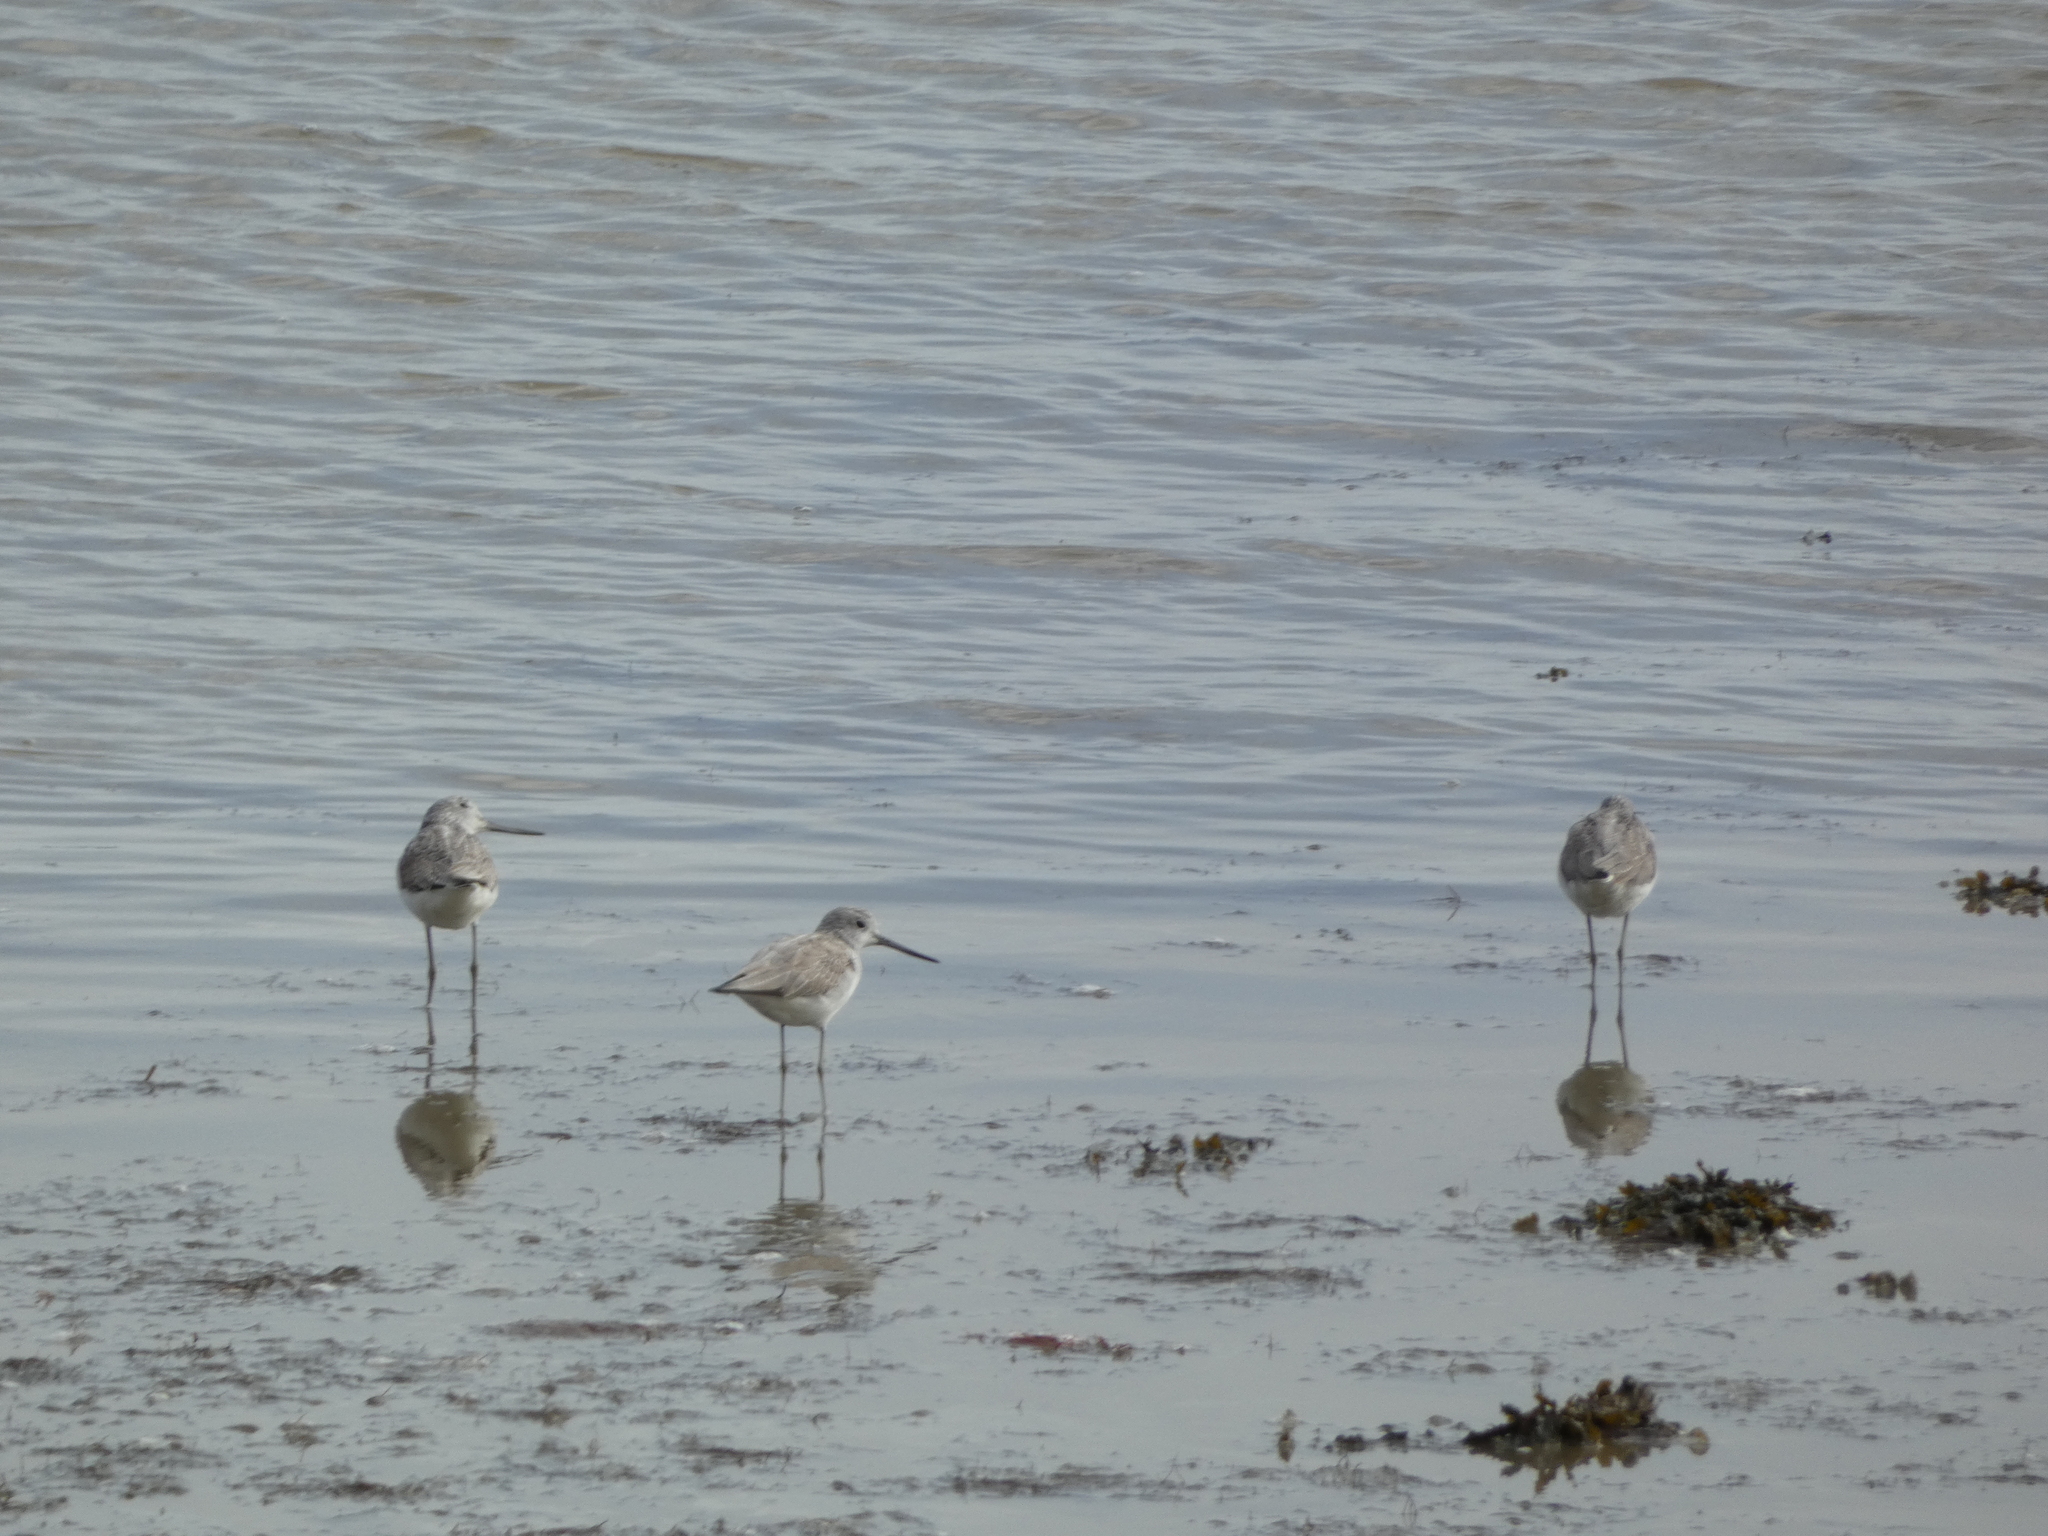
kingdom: Animalia
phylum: Chordata
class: Aves
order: Charadriiformes
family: Scolopacidae
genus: Tringa
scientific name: Tringa nebularia
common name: Common greenshank
